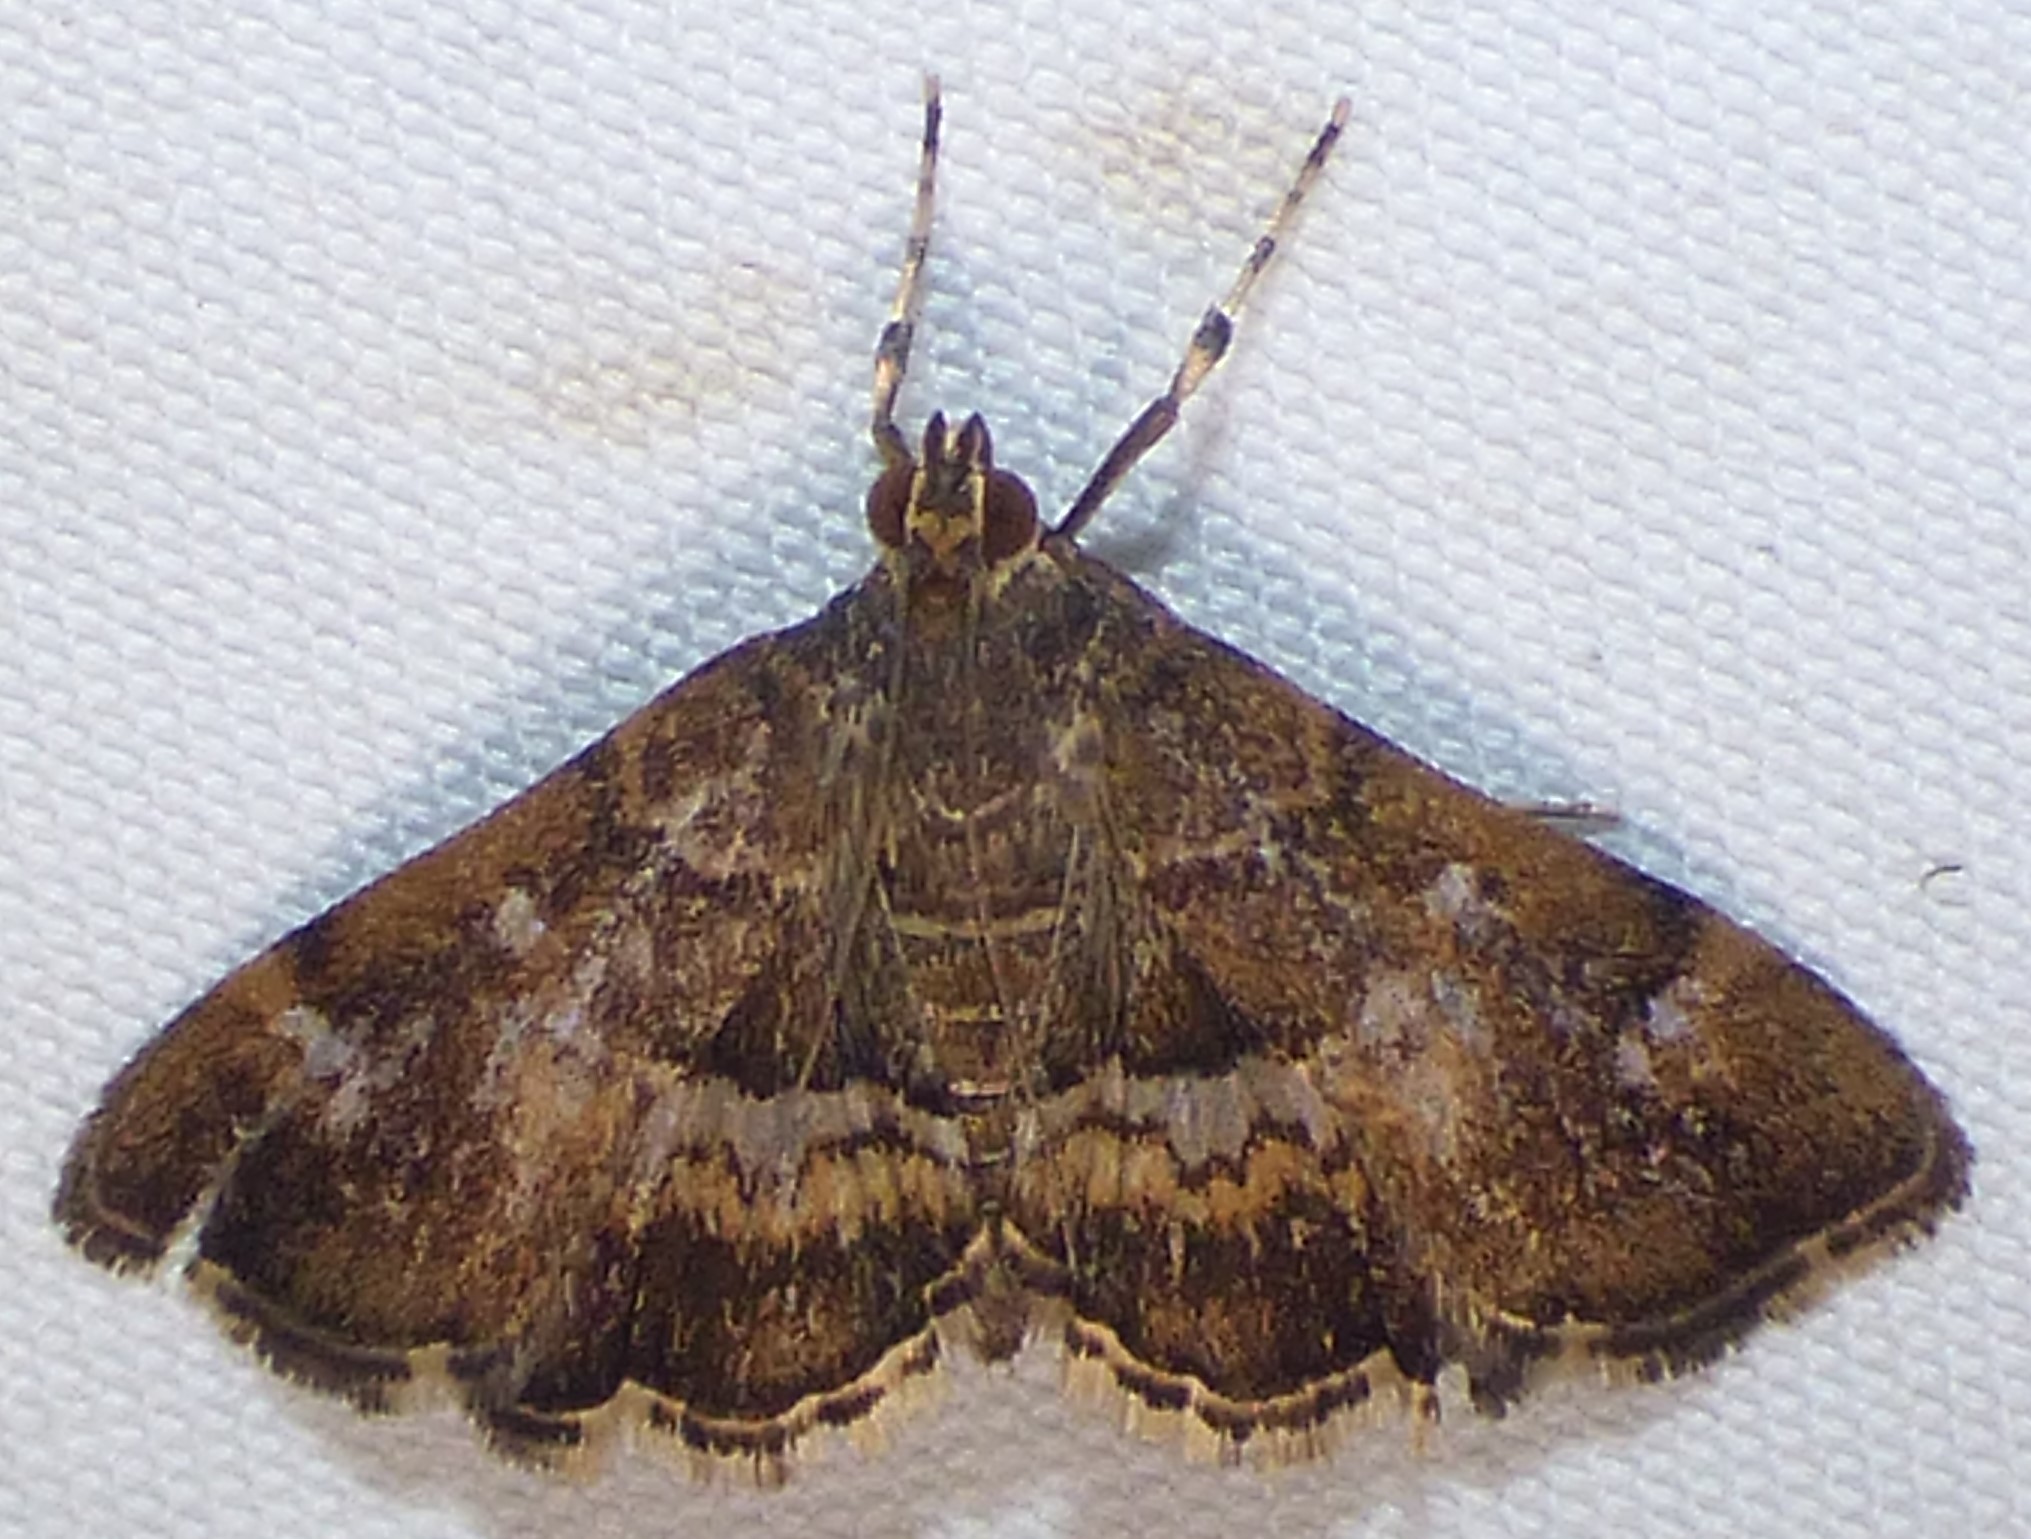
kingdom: Animalia
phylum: Arthropoda
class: Insecta
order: Lepidoptera
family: Crambidae
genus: Hymenia
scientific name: Hymenia perspectalis
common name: Spotted beet webworm
